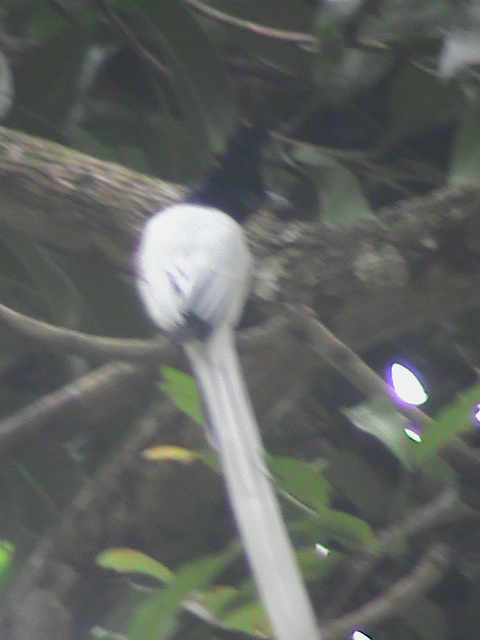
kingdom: Animalia
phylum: Chordata
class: Aves
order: Passeriformes
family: Monarchidae
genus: Terpsiphone
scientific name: Terpsiphone paradisi
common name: Indian paradise flycatcher
